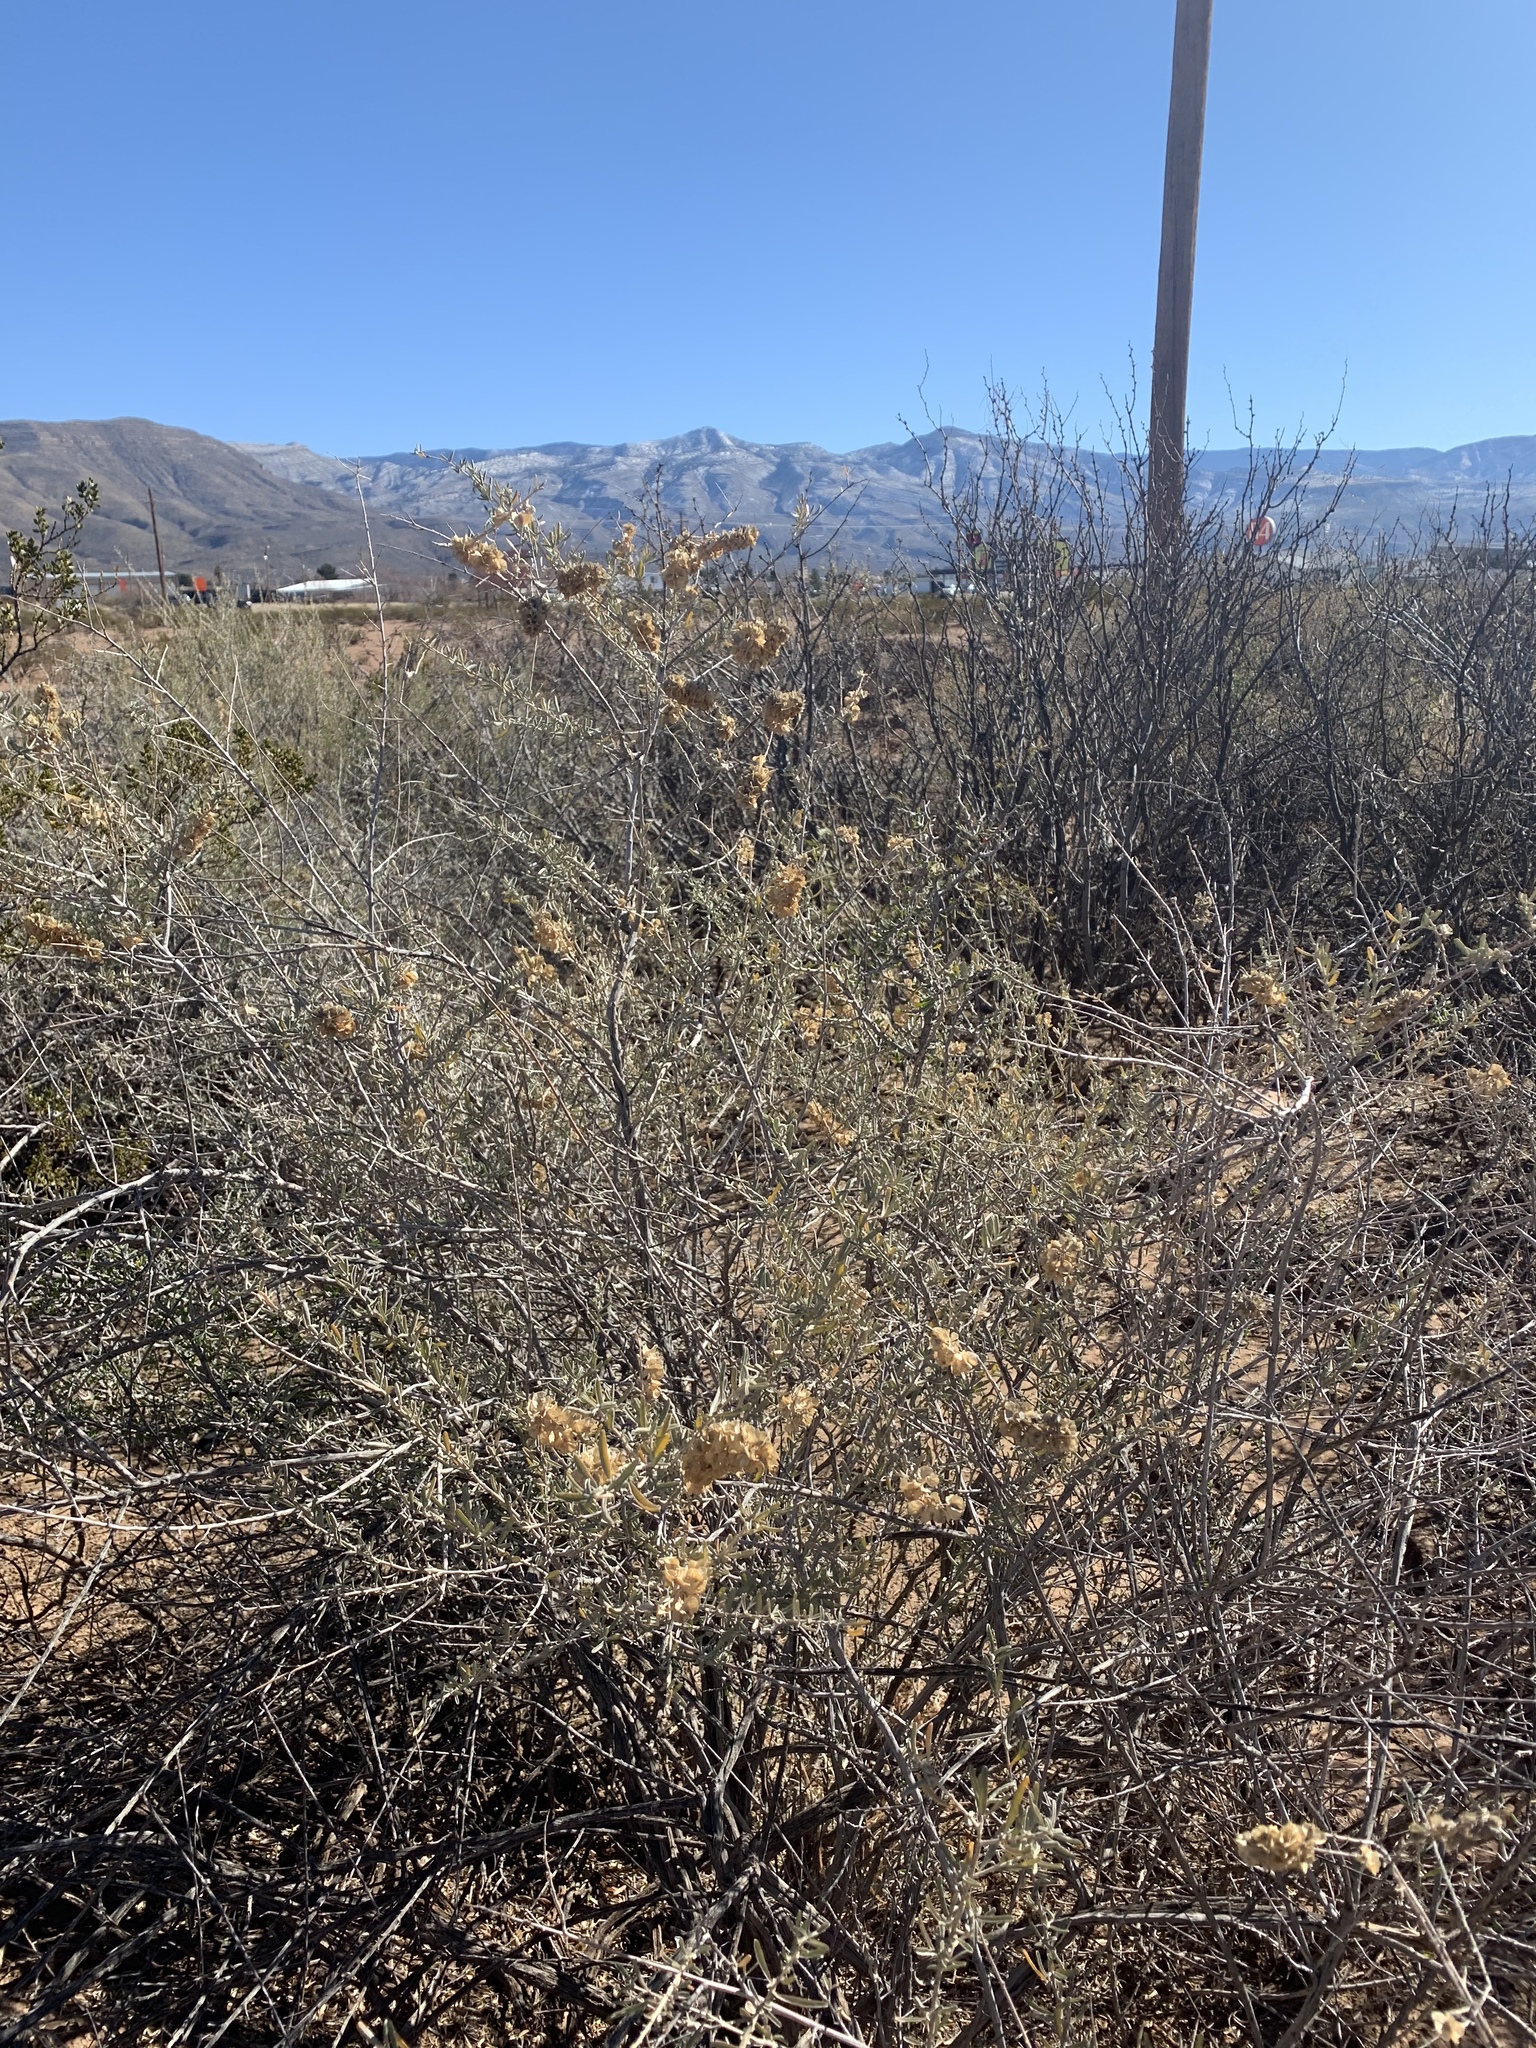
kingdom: Plantae
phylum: Tracheophyta
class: Magnoliopsida
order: Caryophyllales
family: Amaranthaceae
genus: Atriplex
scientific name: Atriplex canescens
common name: Four-wing saltbush
